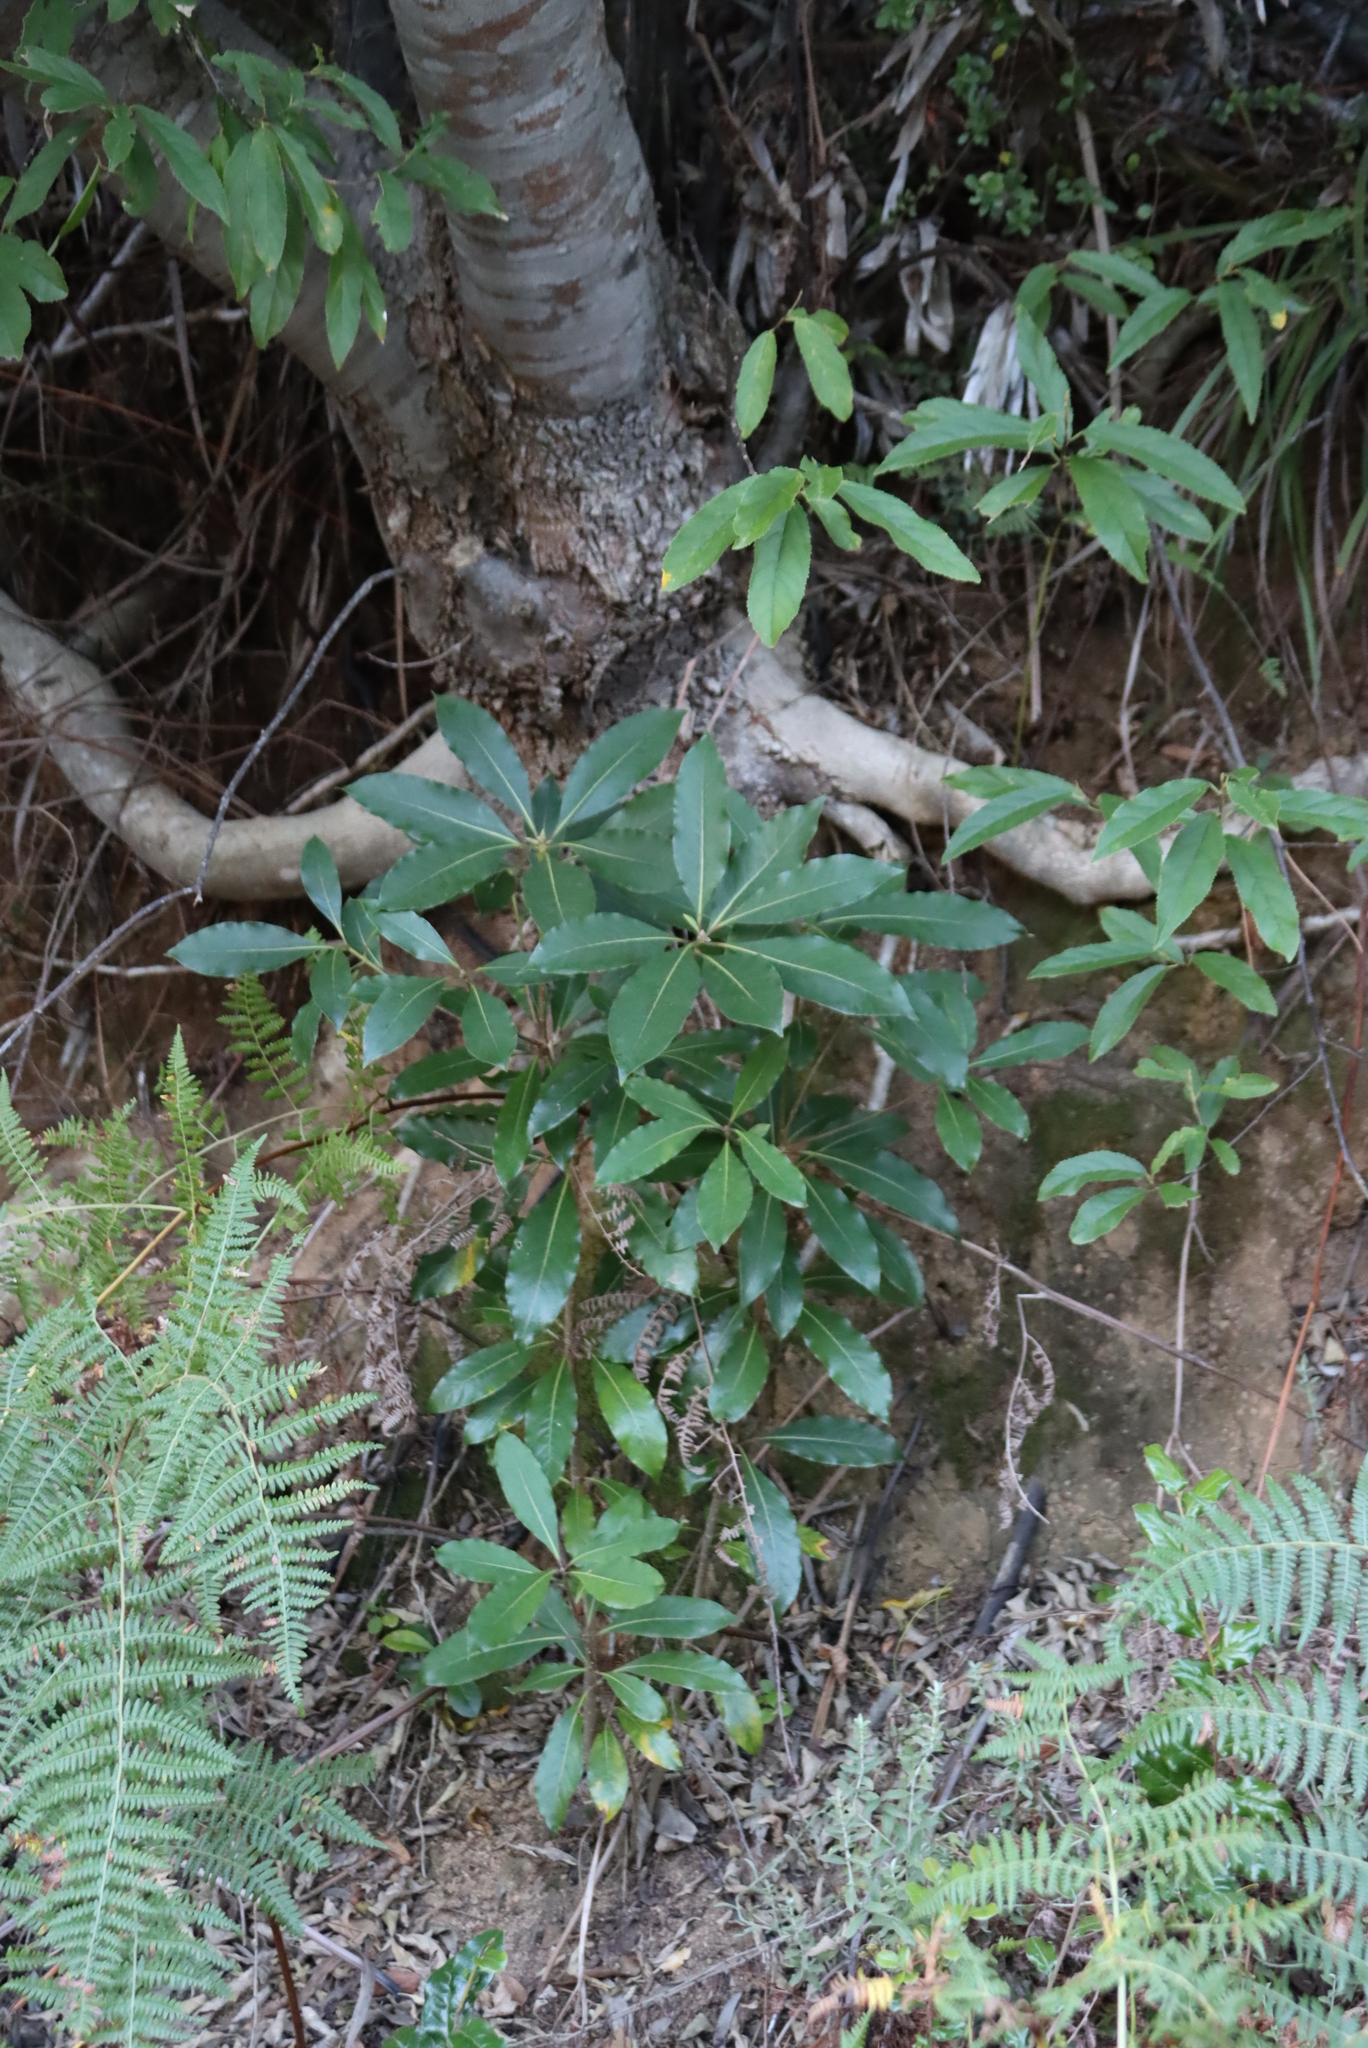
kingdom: Plantae
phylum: Tracheophyta
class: Magnoliopsida
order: Apiales
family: Pittosporaceae
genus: Pittosporum
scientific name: Pittosporum undulatum
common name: Australian cheesewood
